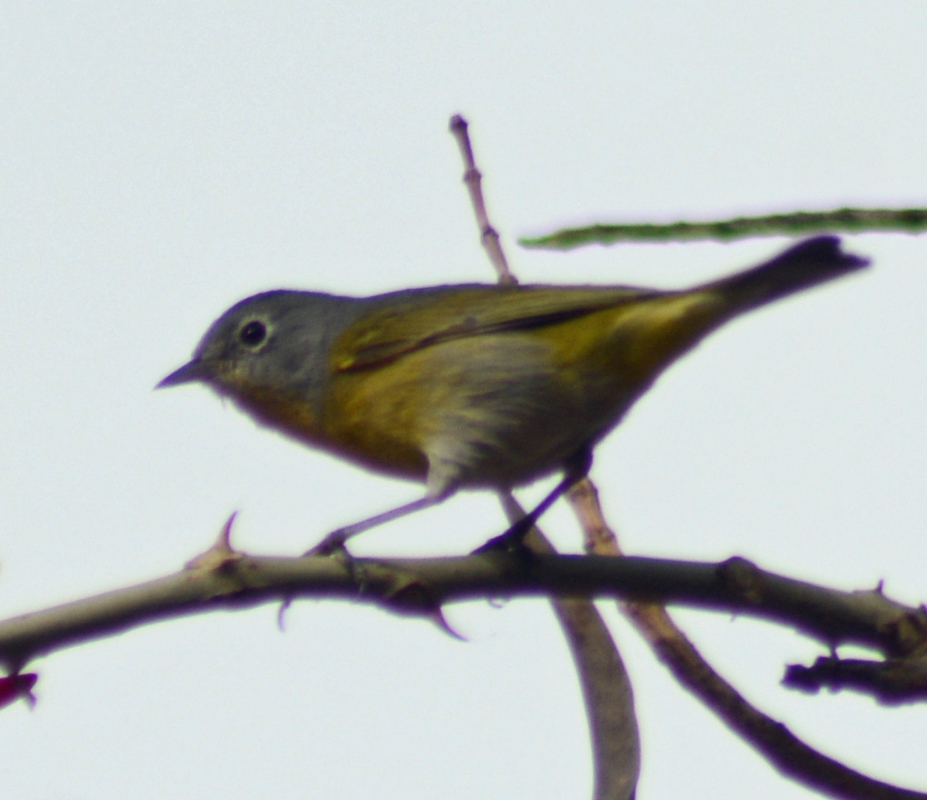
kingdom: Animalia
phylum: Chordata
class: Aves
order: Passeriformes
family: Parulidae
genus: Leiothlypis
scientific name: Leiothlypis ruficapilla
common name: Nashville warbler
